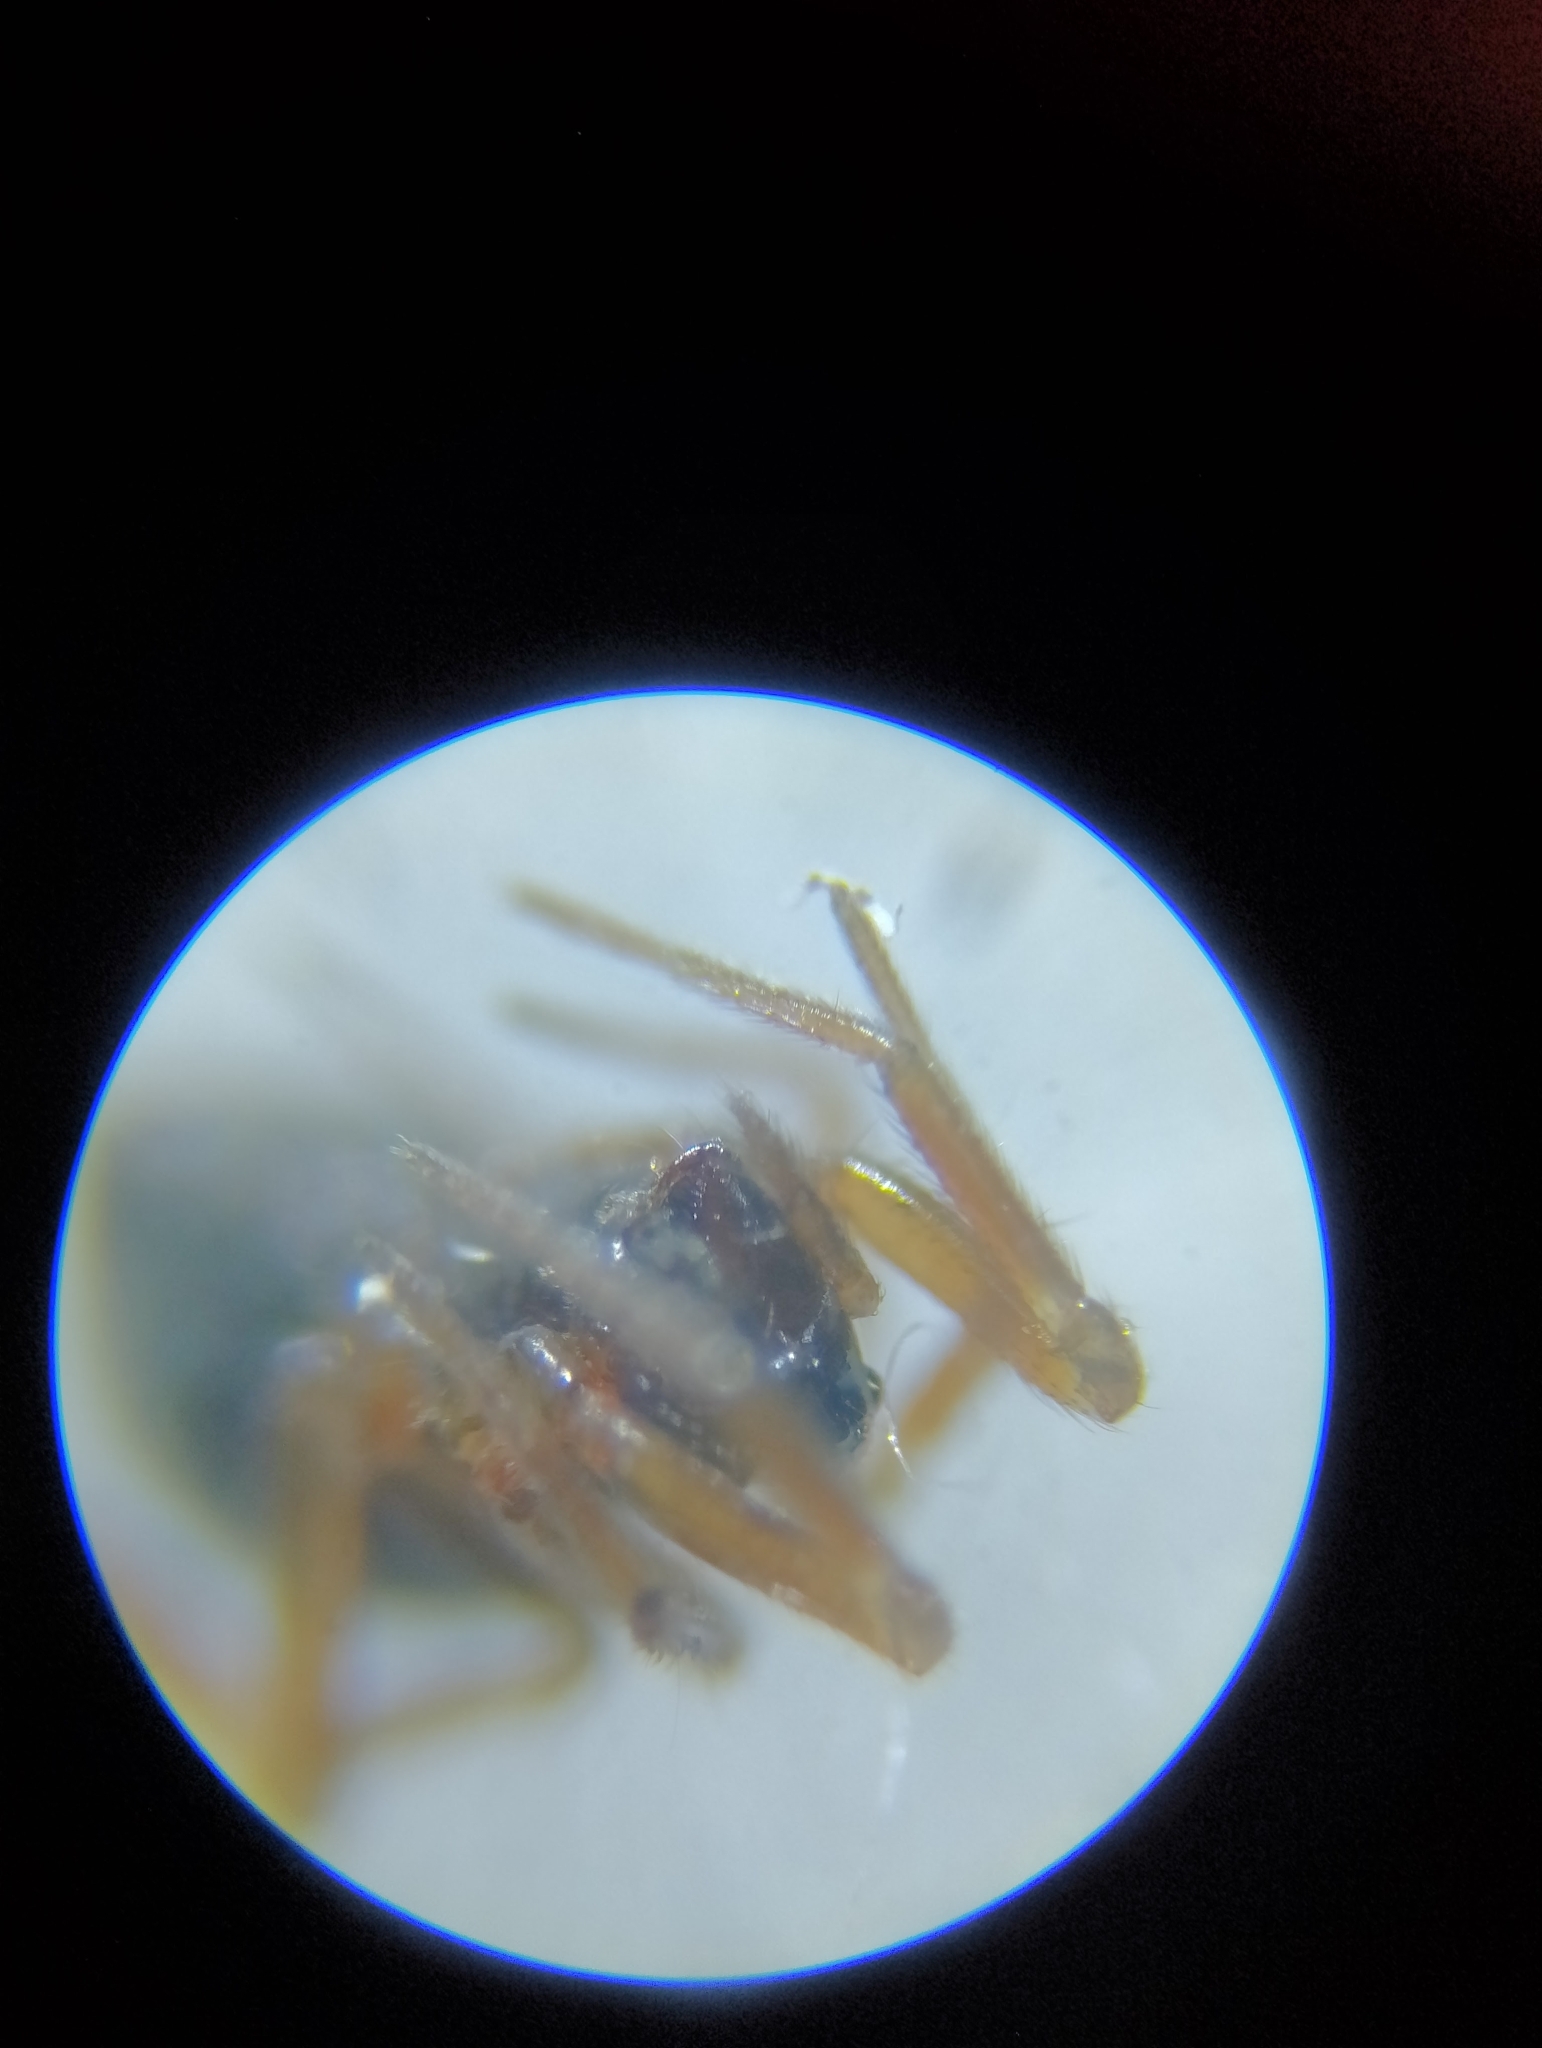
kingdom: Animalia
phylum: Arthropoda
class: Arachnida
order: Araneae
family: Linyphiidae
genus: Araeoncus
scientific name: Araeoncus humilis
